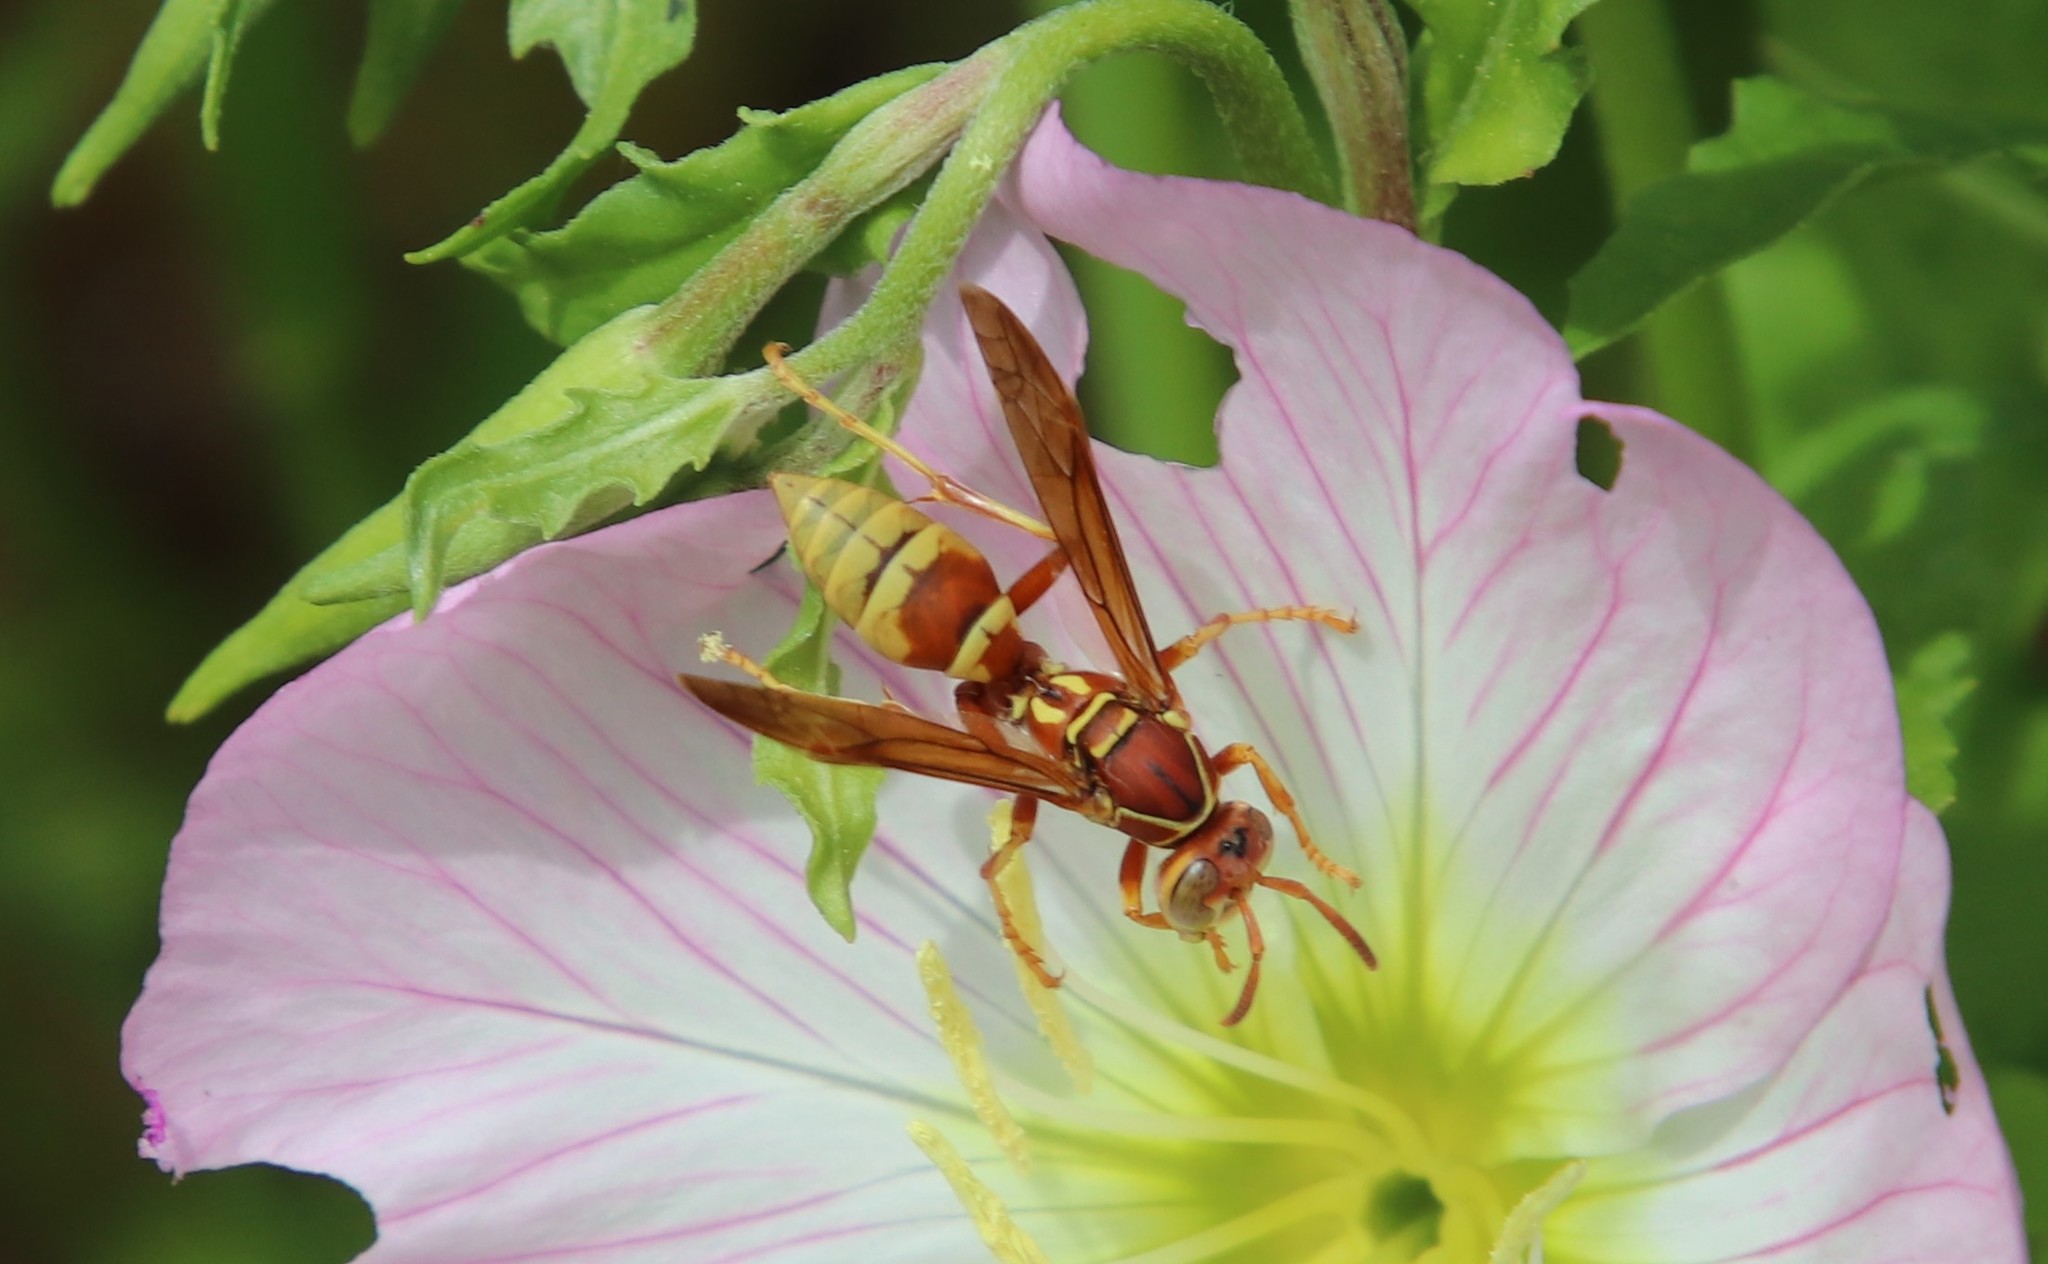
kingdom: Animalia
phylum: Arthropoda
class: Insecta
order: Hymenoptera
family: Eumenidae
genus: Polistes
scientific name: Polistes dorsalis
